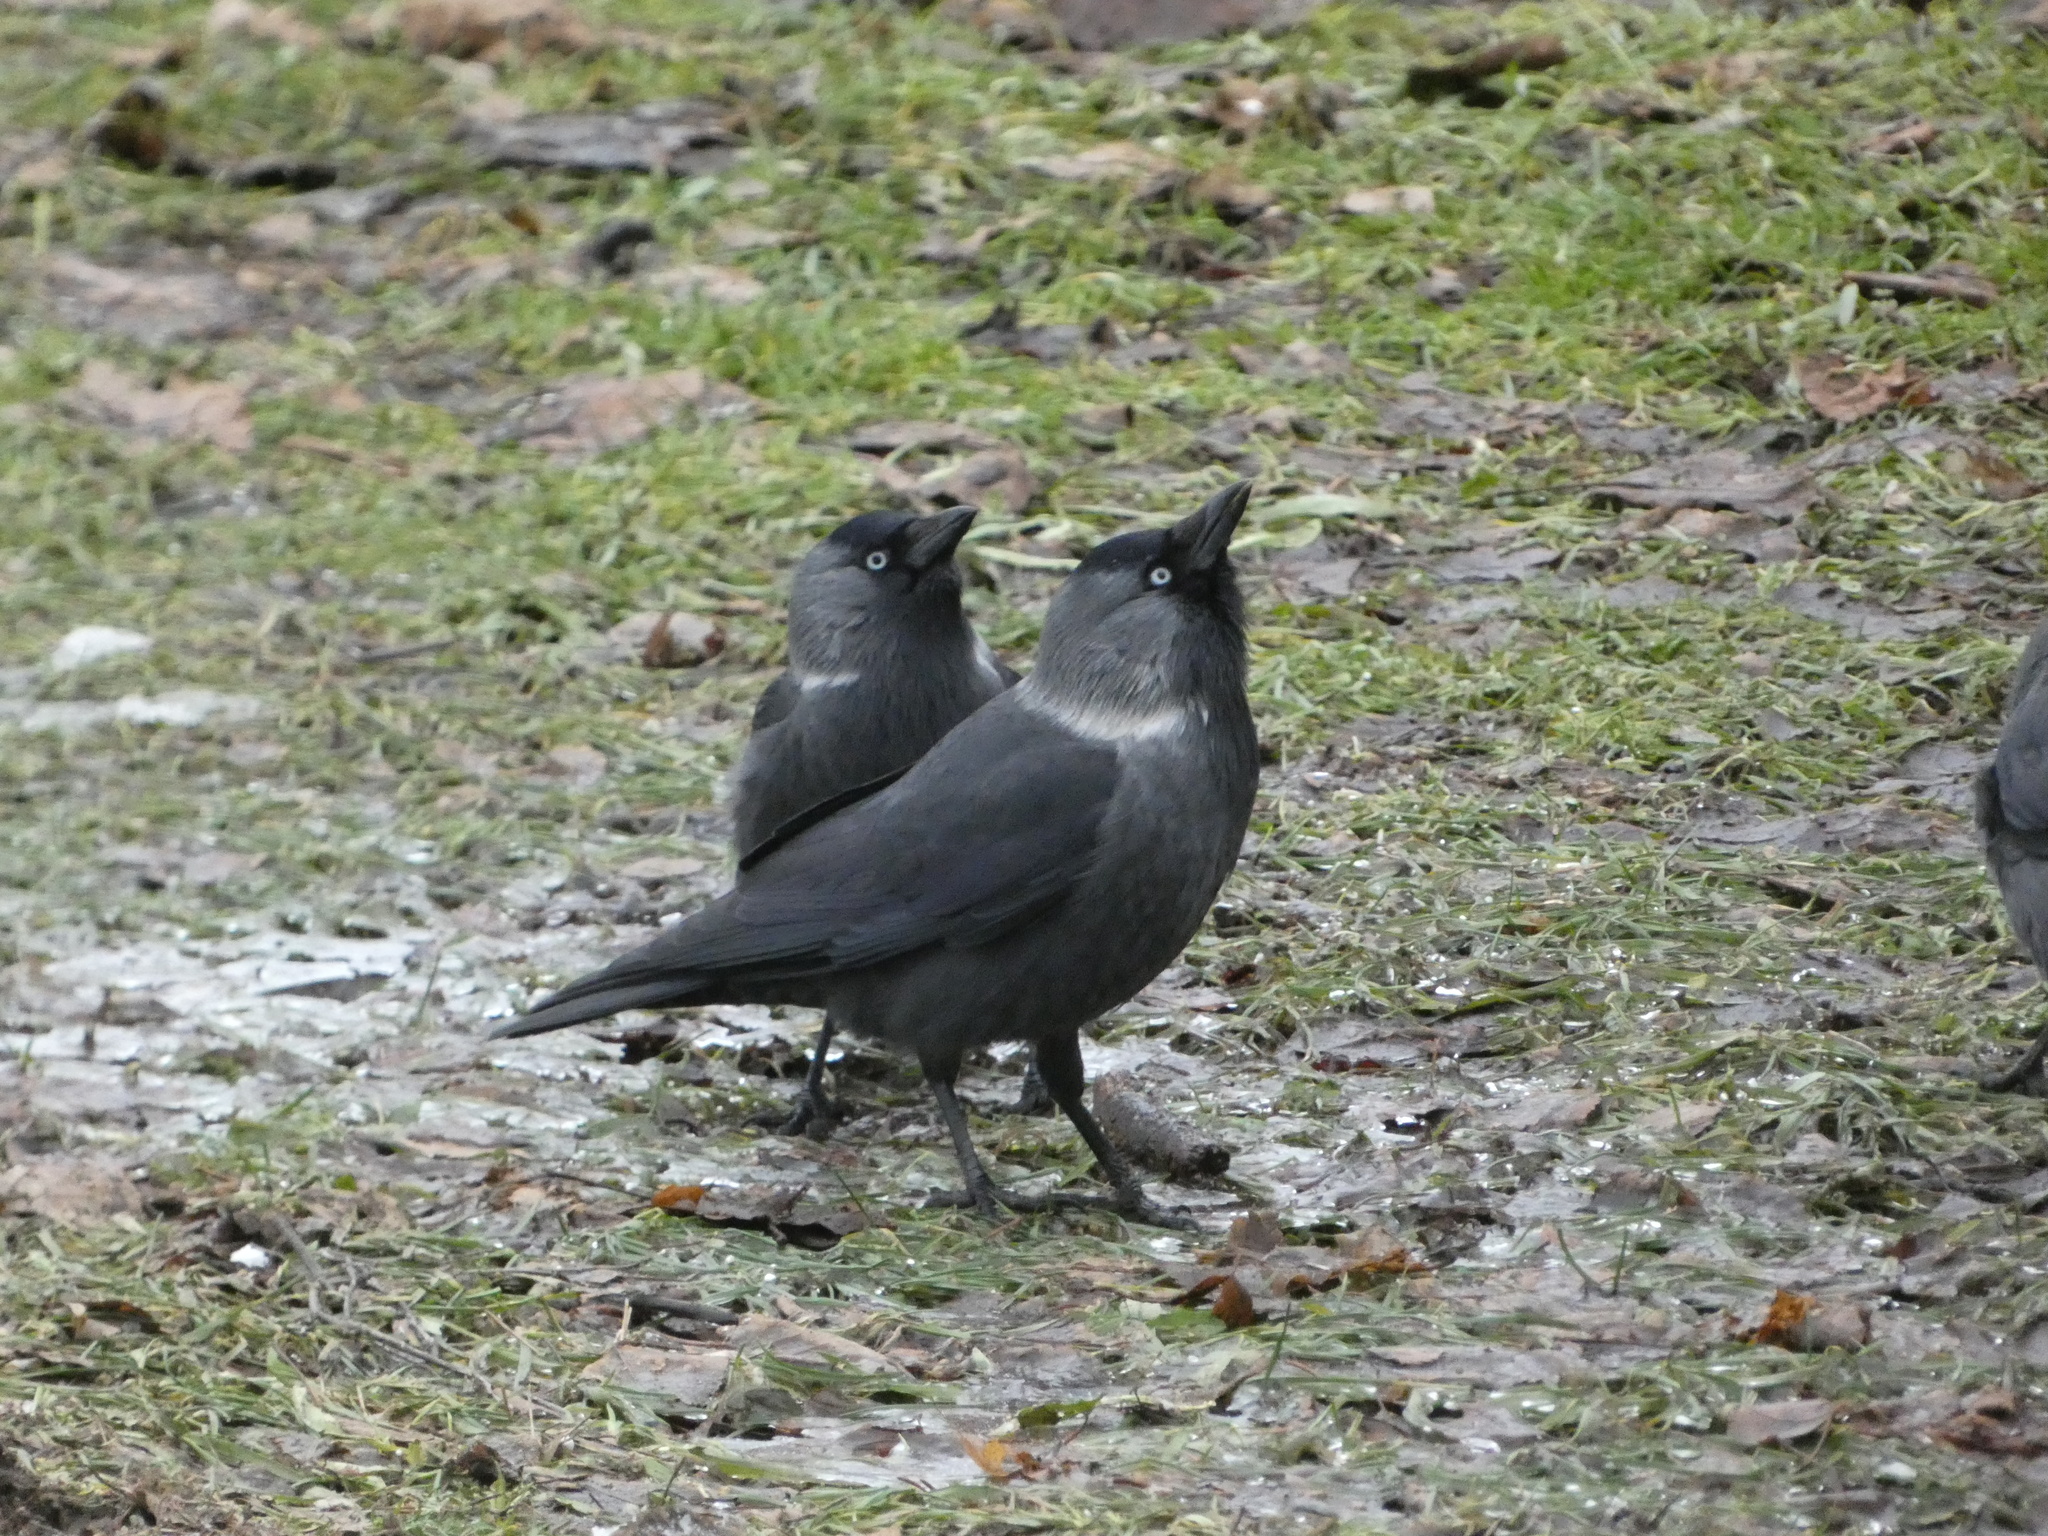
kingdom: Animalia
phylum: Chordata
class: Aves
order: Passeriformes
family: Corvidae
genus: Coloeus
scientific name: Coloeus monedula
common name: Western jackdaw
